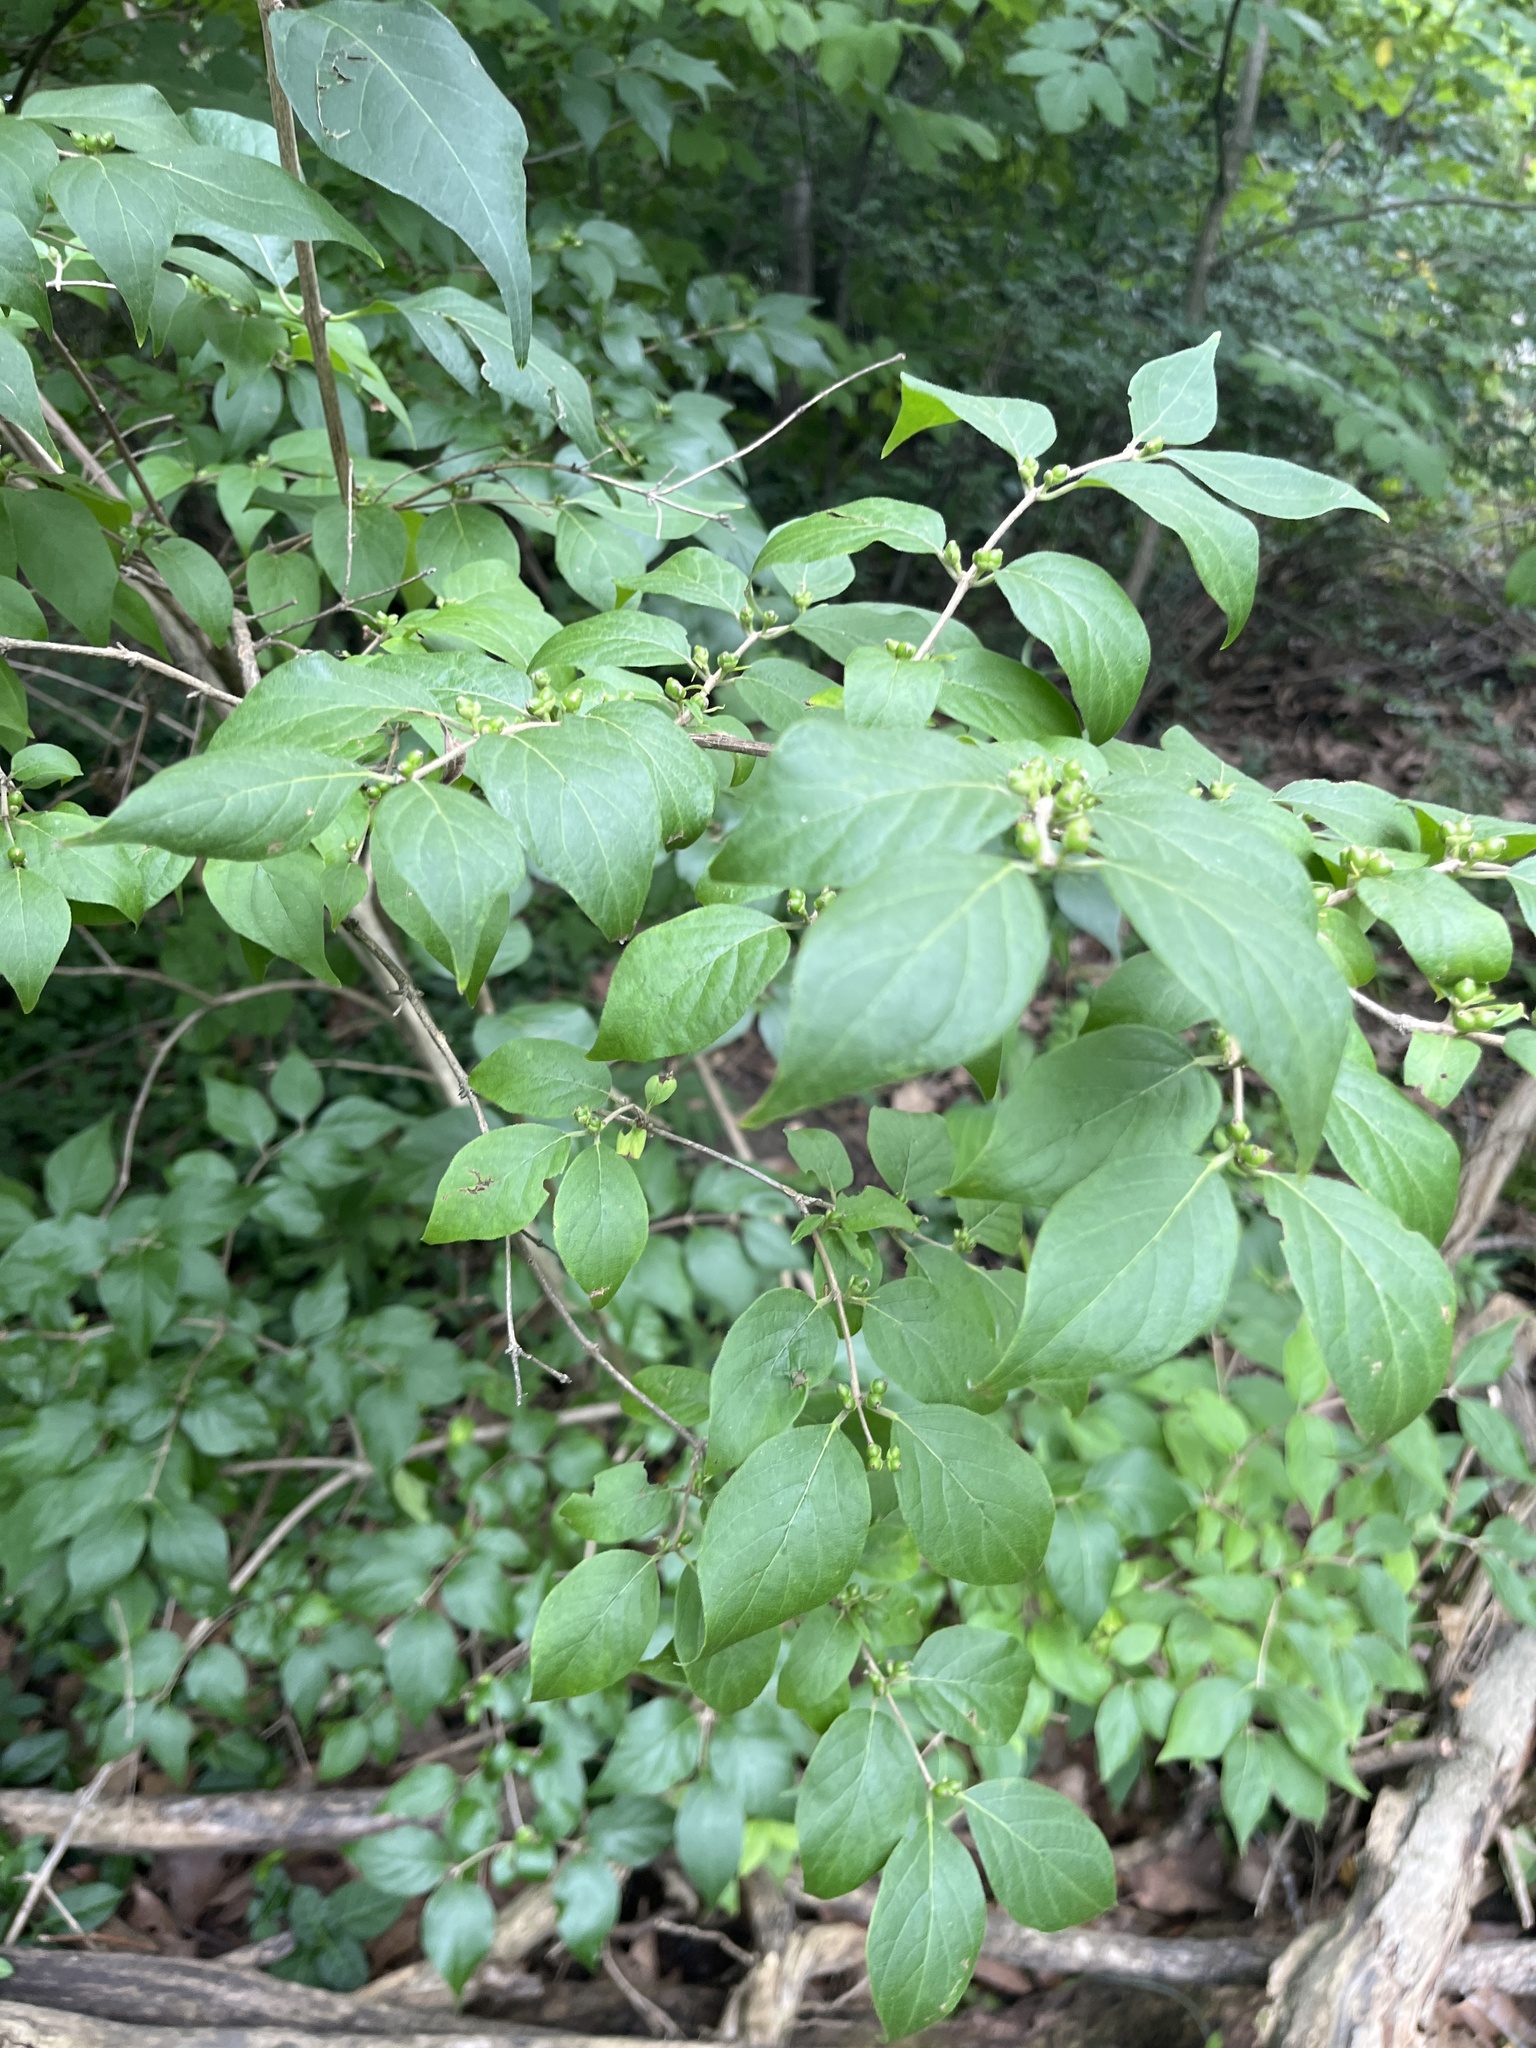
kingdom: Plantae
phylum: Tracheophyta
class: Magnoliopsida
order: Dipsacales
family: Caprifoliaceae
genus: Lonicera
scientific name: Lonicera maackii
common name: Amur honeysuckle
